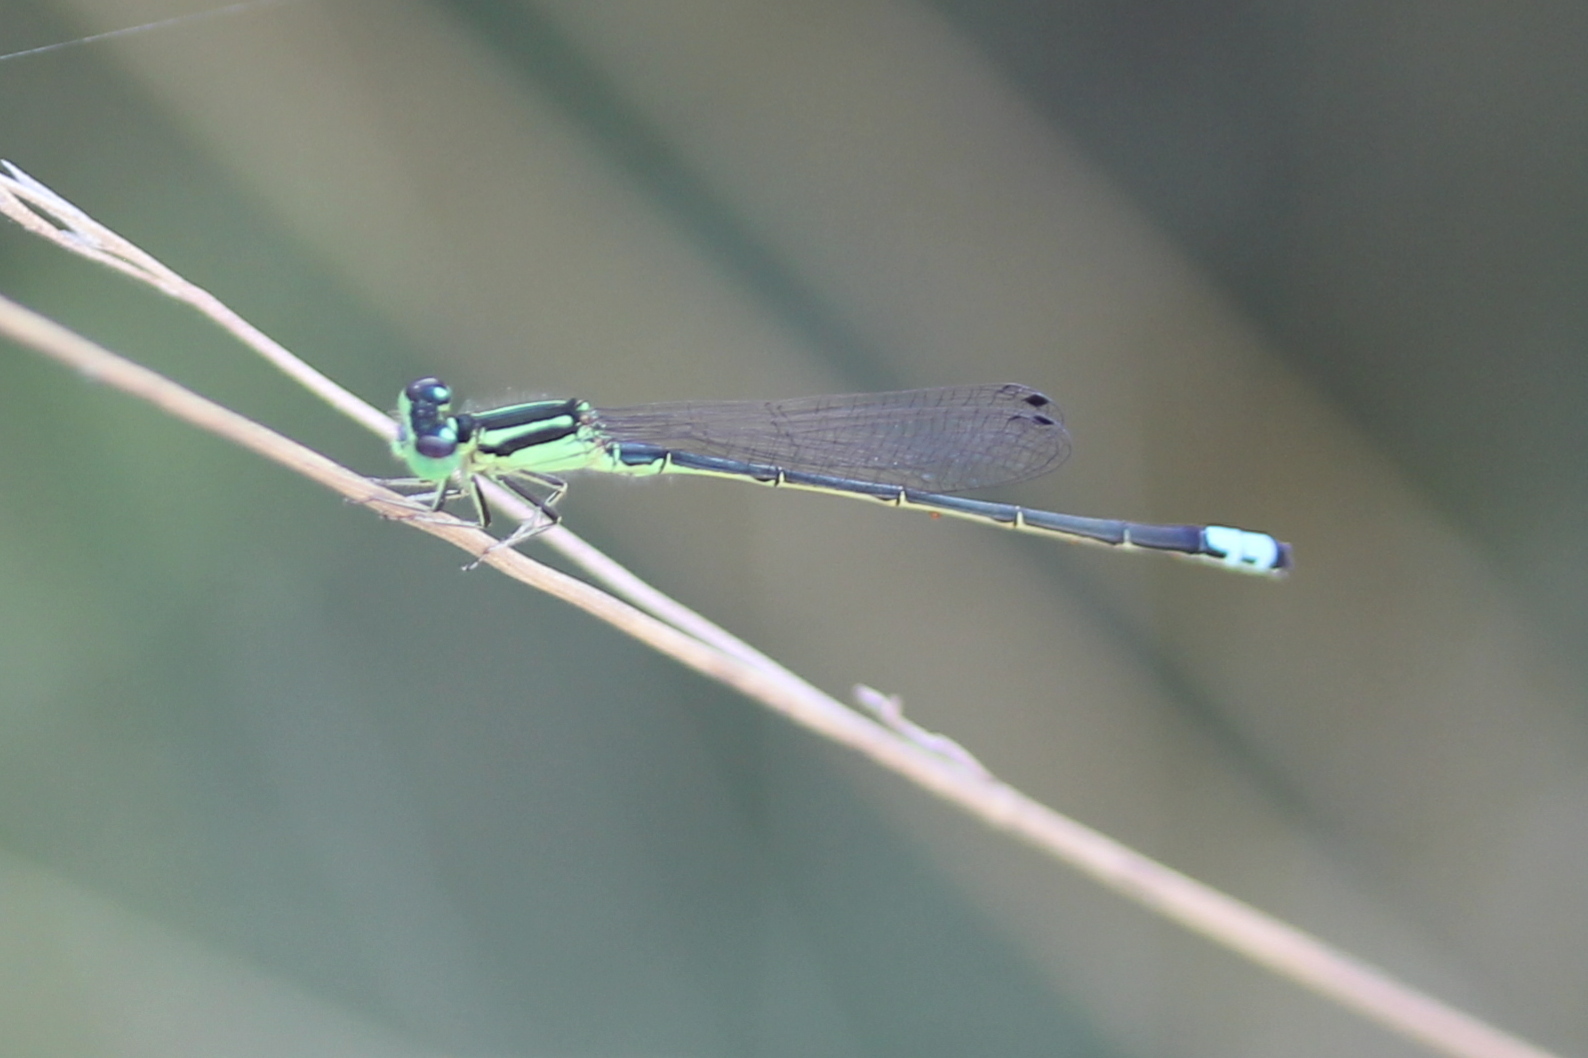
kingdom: Animalia
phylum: Arthropoda
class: Insecta
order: Odonata
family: Coenagrionidae
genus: Ischnura
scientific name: Ischnura verticalis
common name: Eastern forktail
